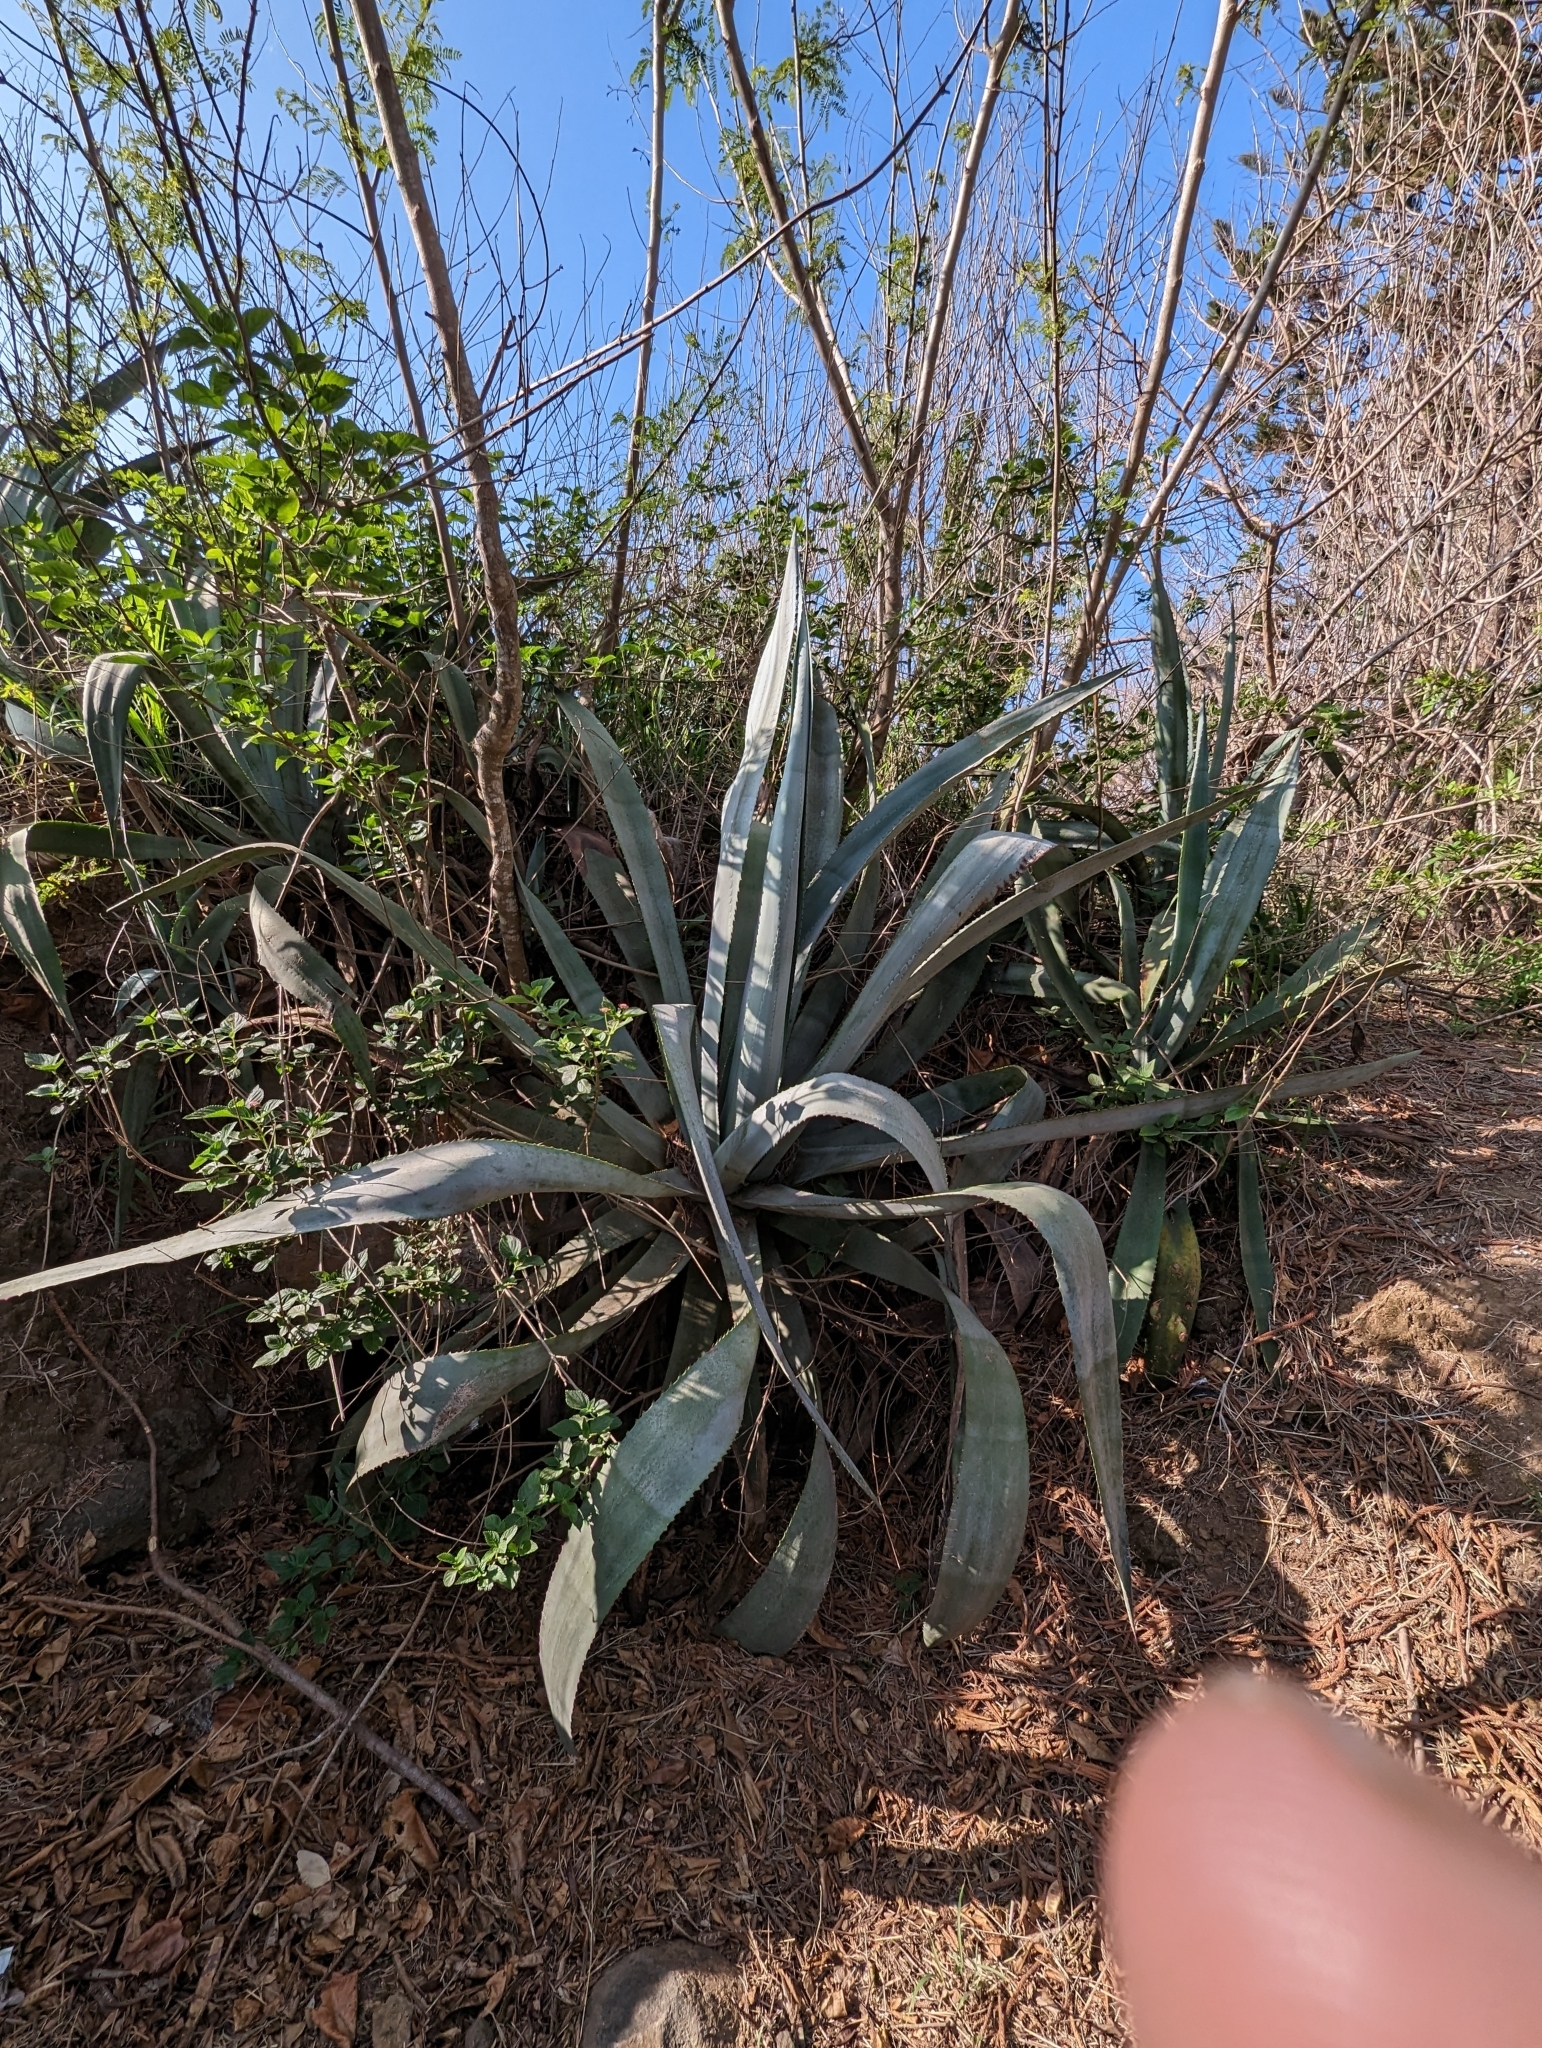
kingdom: Plantae
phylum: Tracheophyta
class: Liliopsida
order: Asparagales
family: Asparagaceae
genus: Agave
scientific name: Agave americana
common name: Centuryplant
